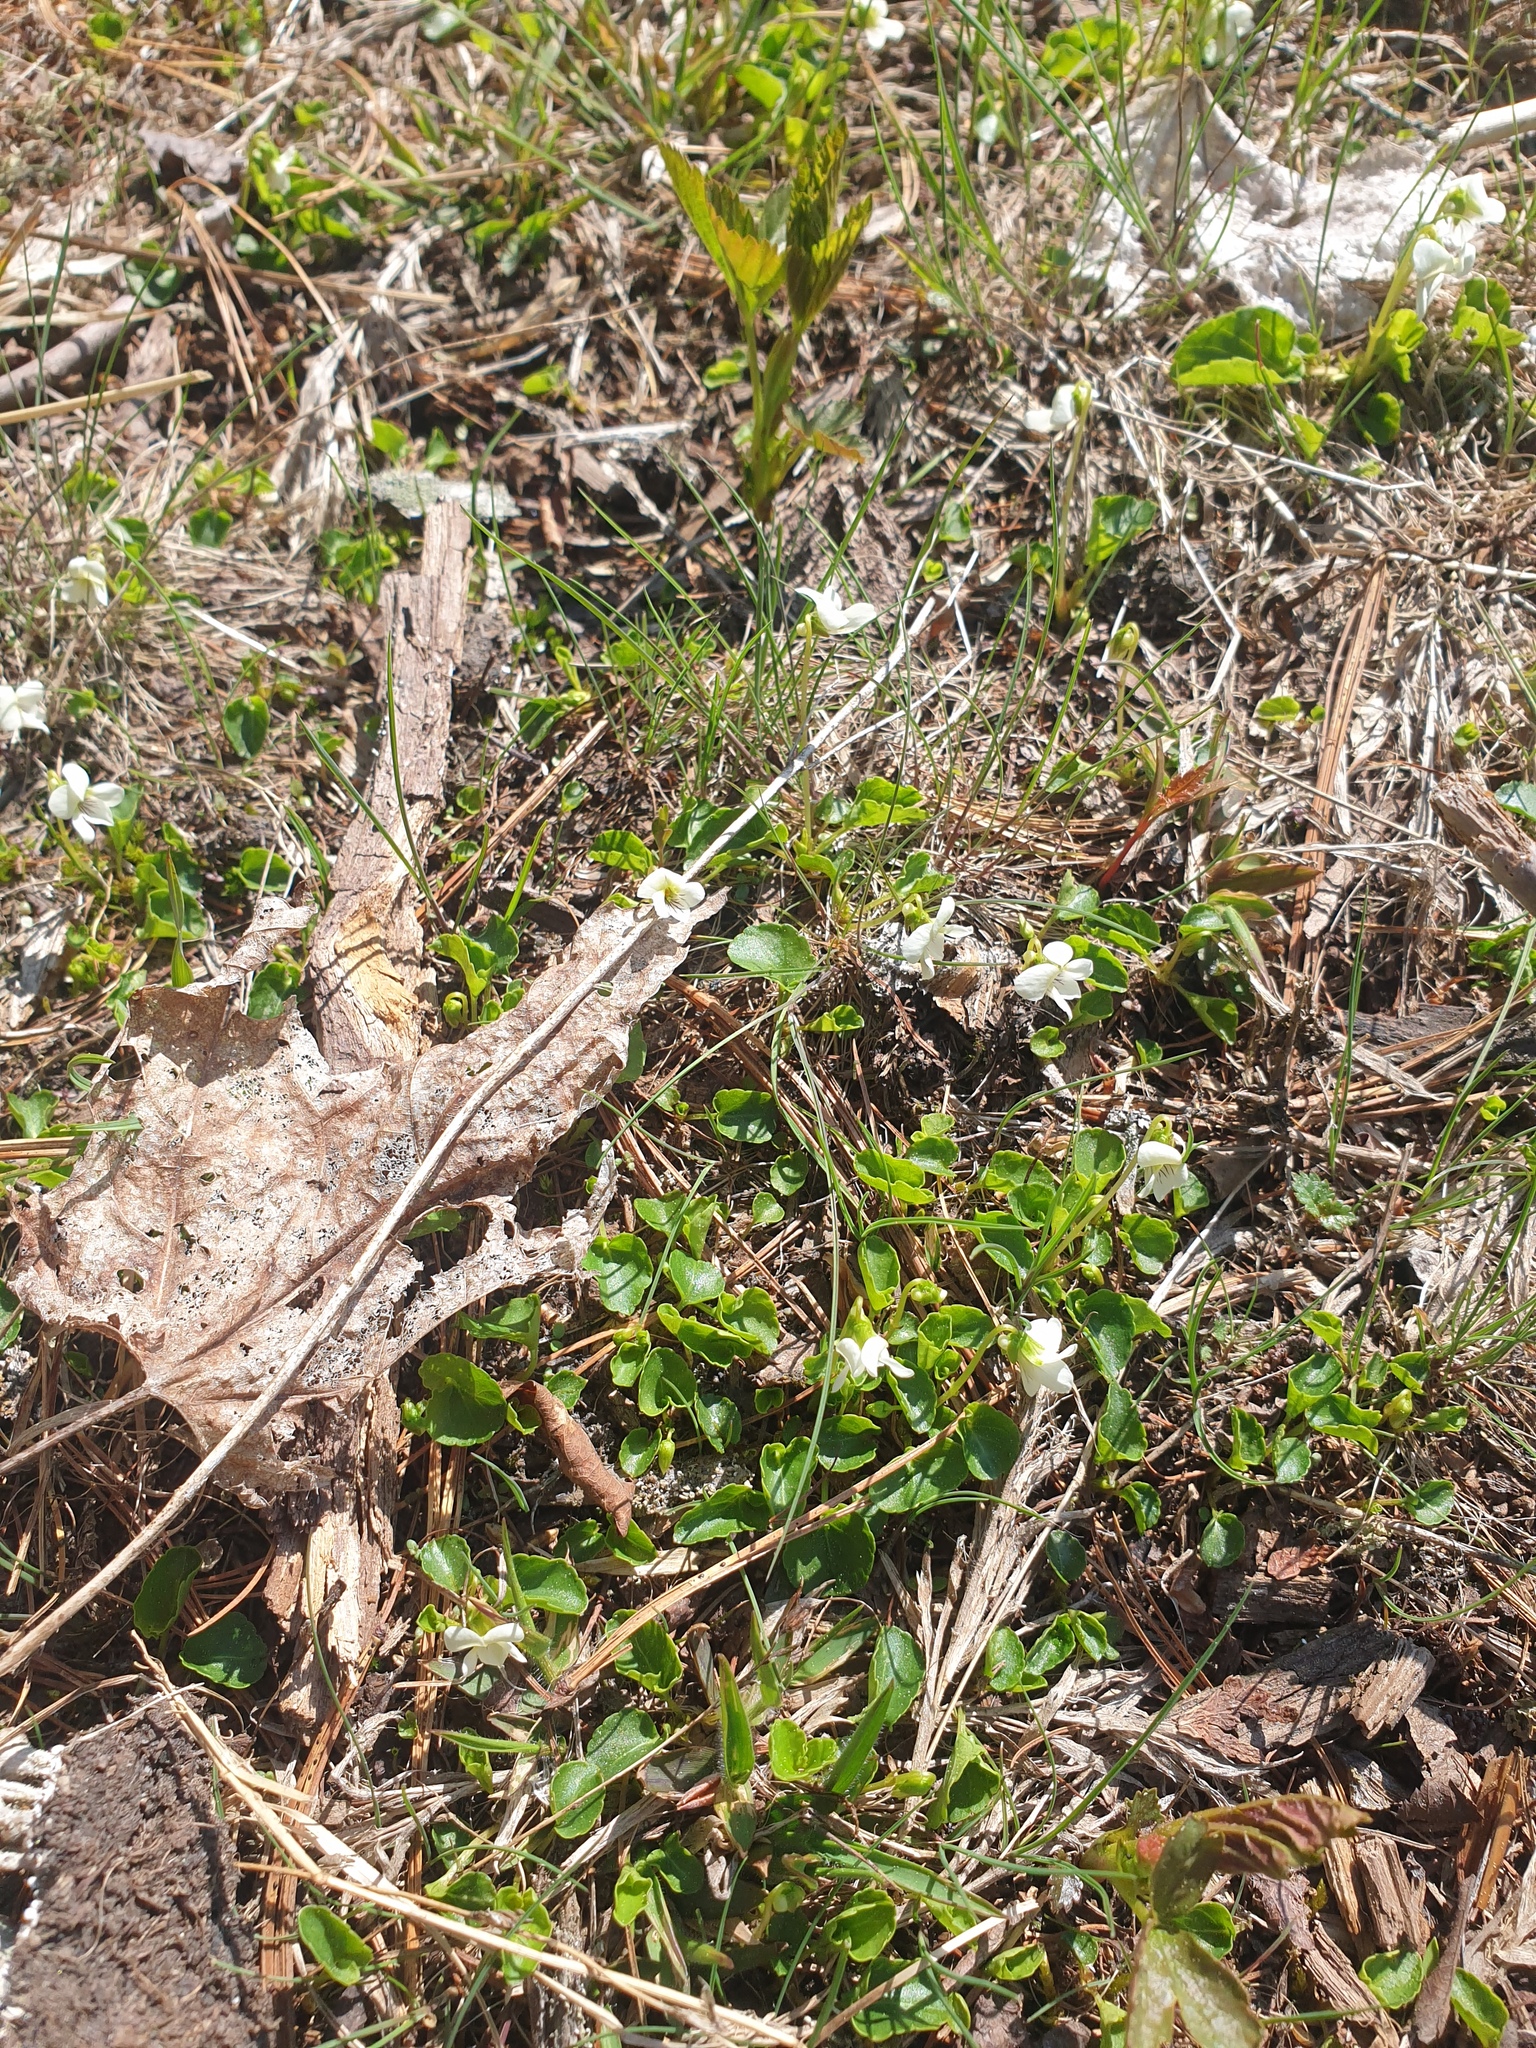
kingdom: Plantae
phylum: Tracheophyta
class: Magnoliopsida
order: Malpighiales
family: Violaceae
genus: Viola
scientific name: Viola minuscula
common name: Northern white violet
